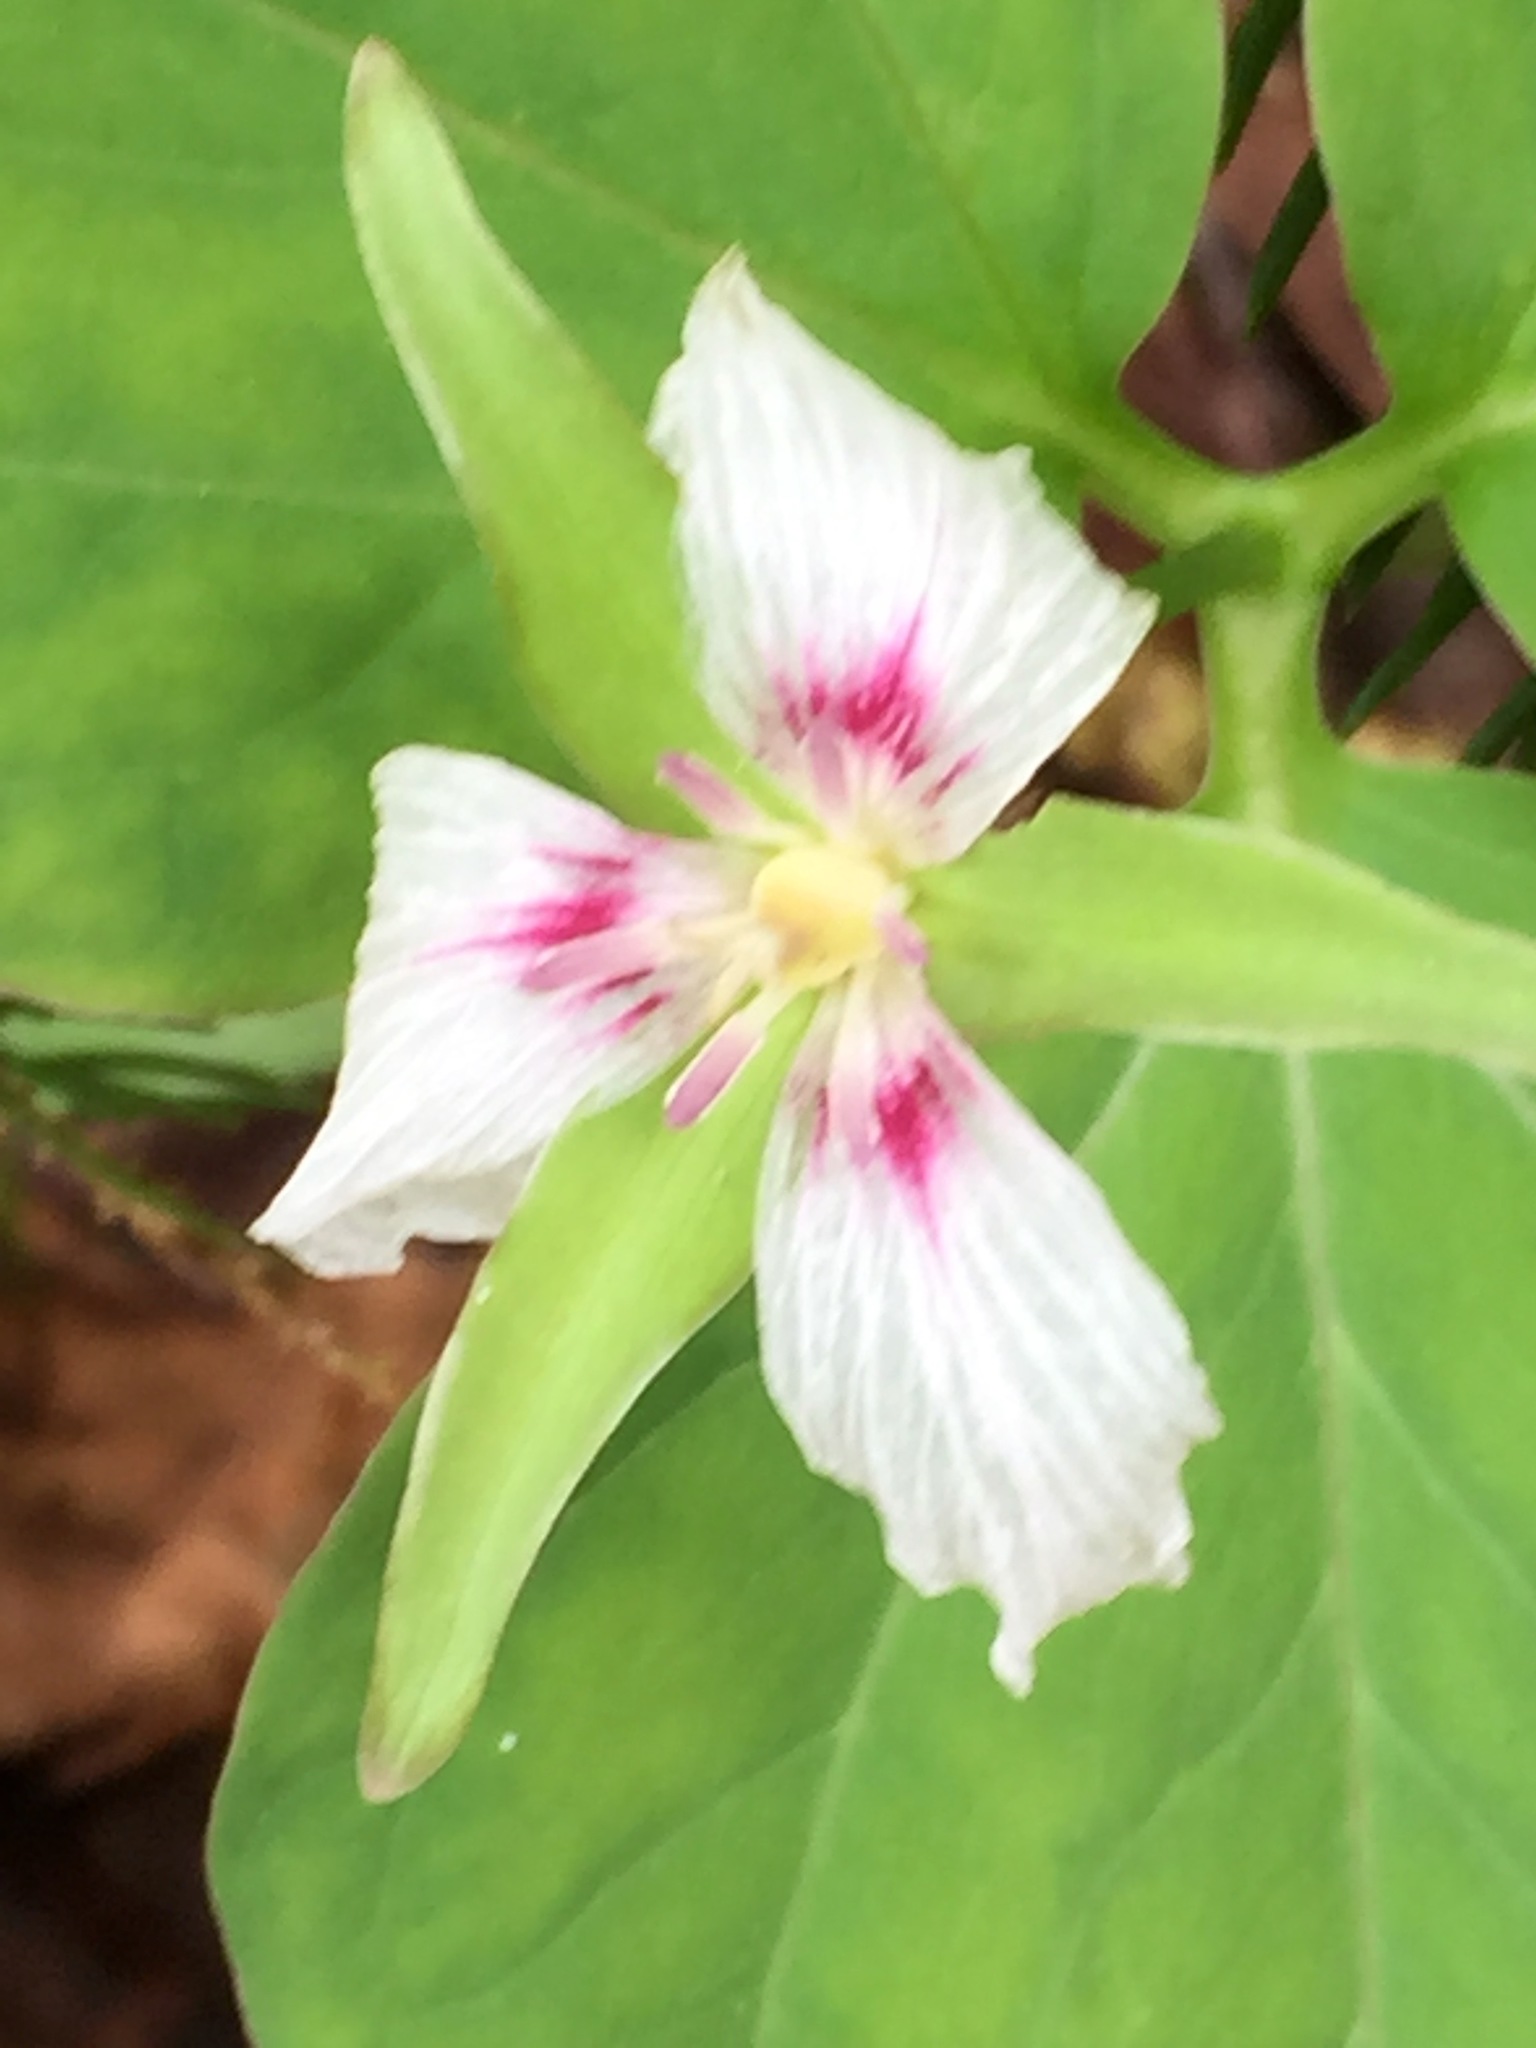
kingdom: Plantae
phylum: Tracheophyta
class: Liliopsida
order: Liliales
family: Melanthiaceae
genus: Trillium
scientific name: Trillium undulatum
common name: Paint trillium
